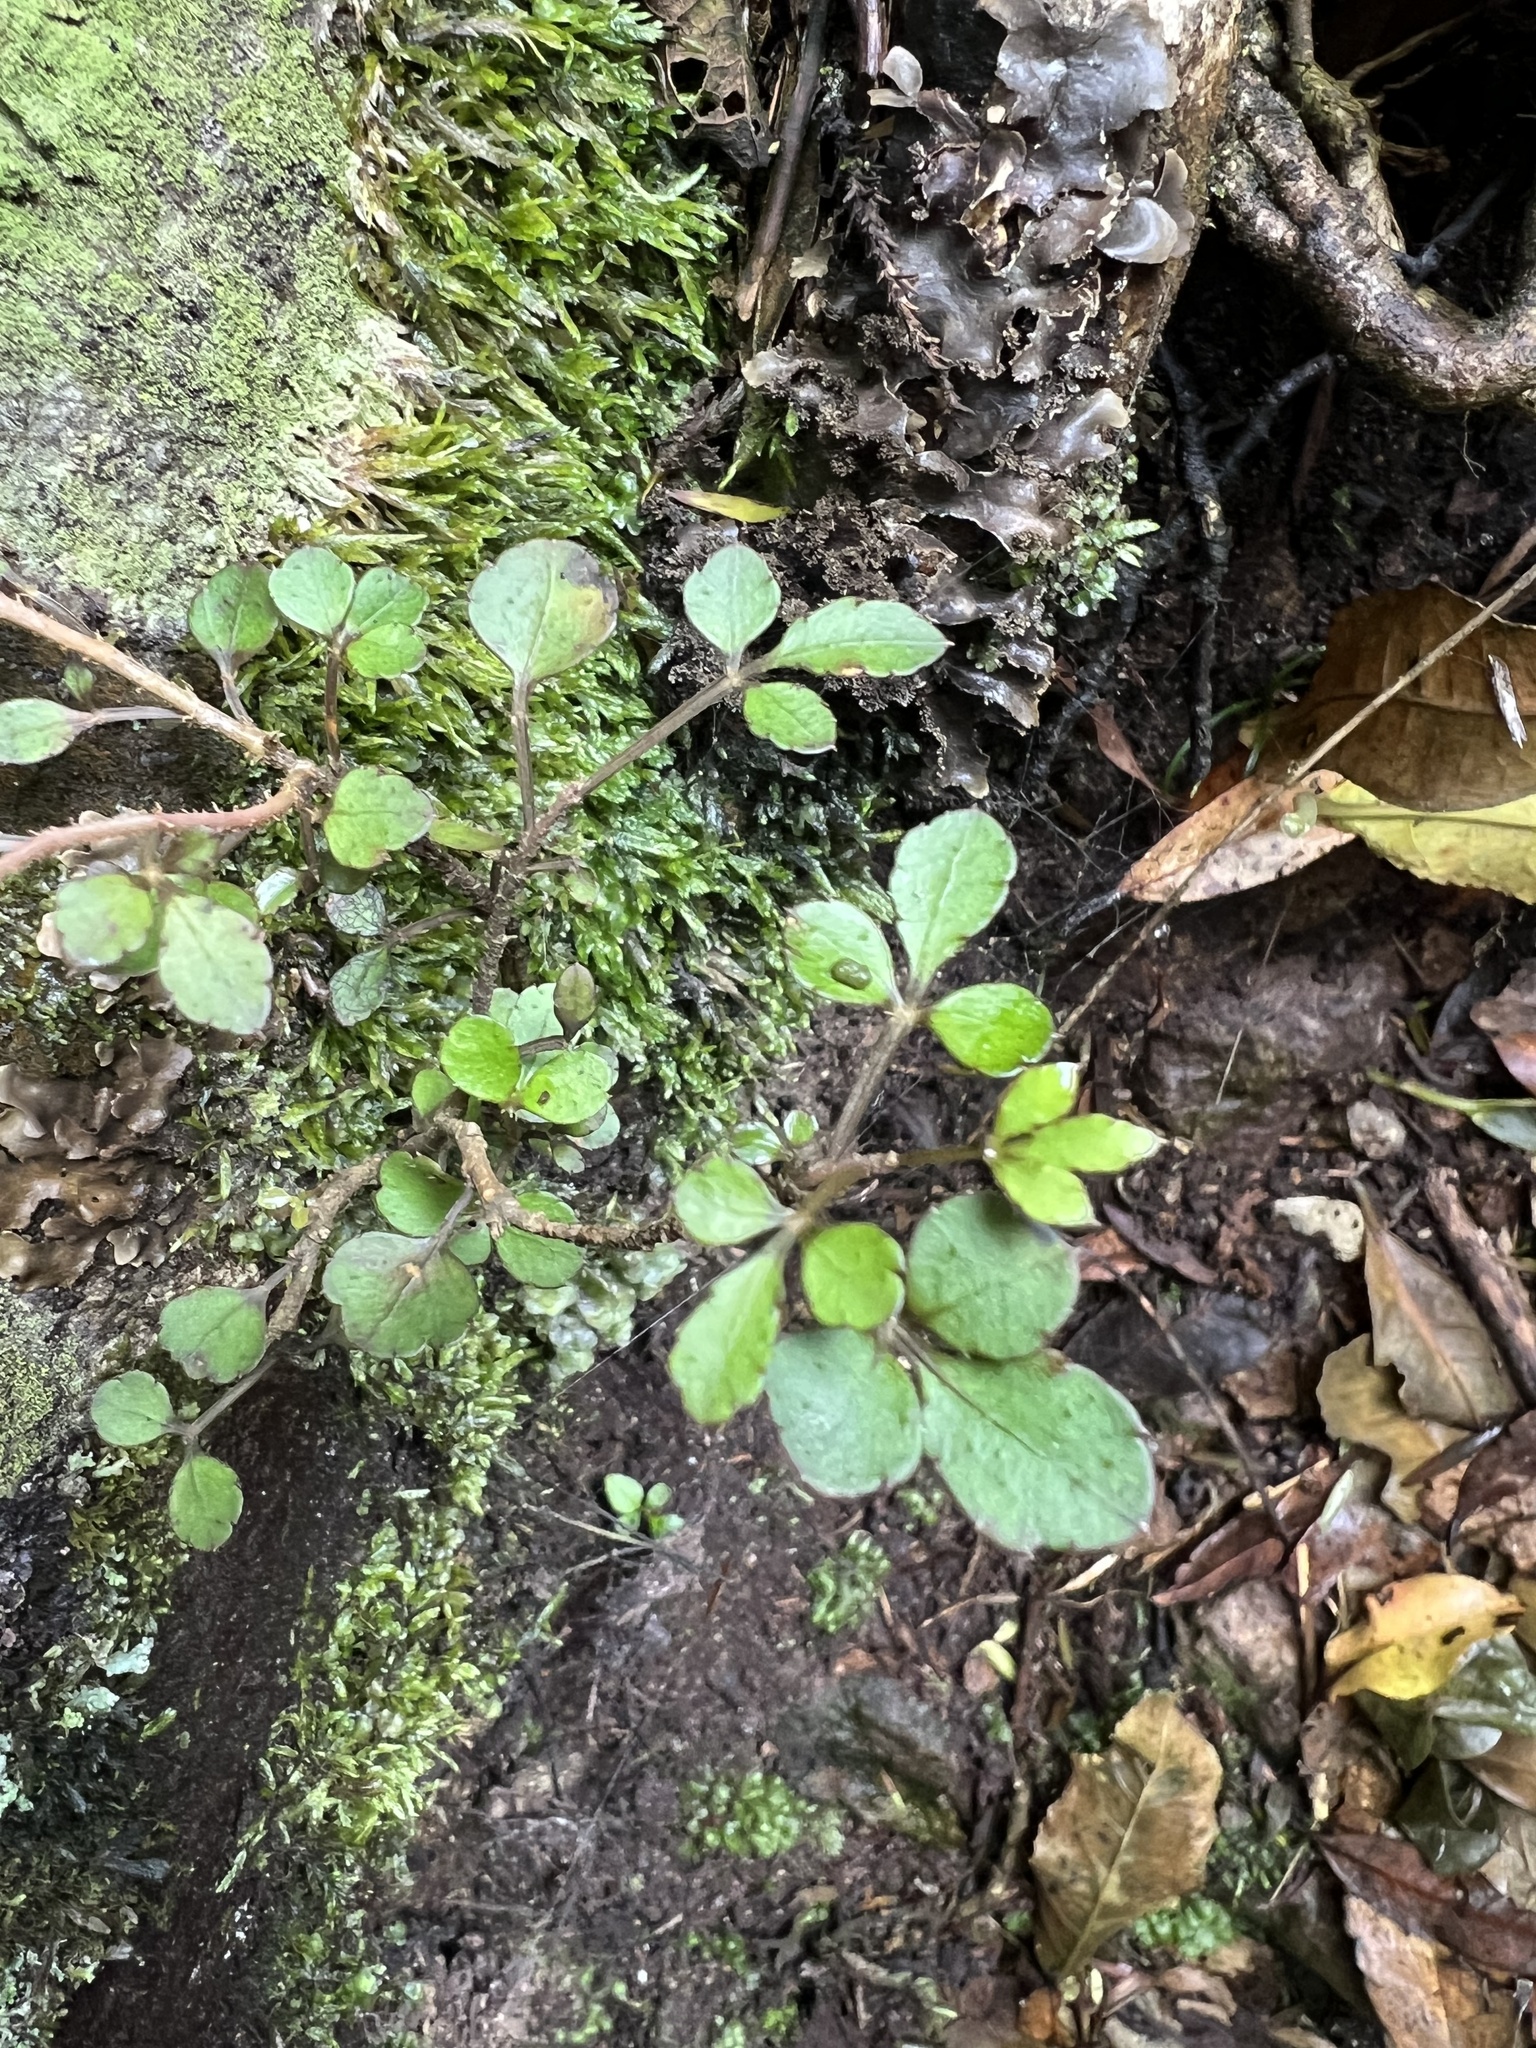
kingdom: Plantae
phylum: Tracheophyta
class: Magnoliopsida
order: Apiales
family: Araliaceae
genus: Raukaua
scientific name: Raukaua anomalus
